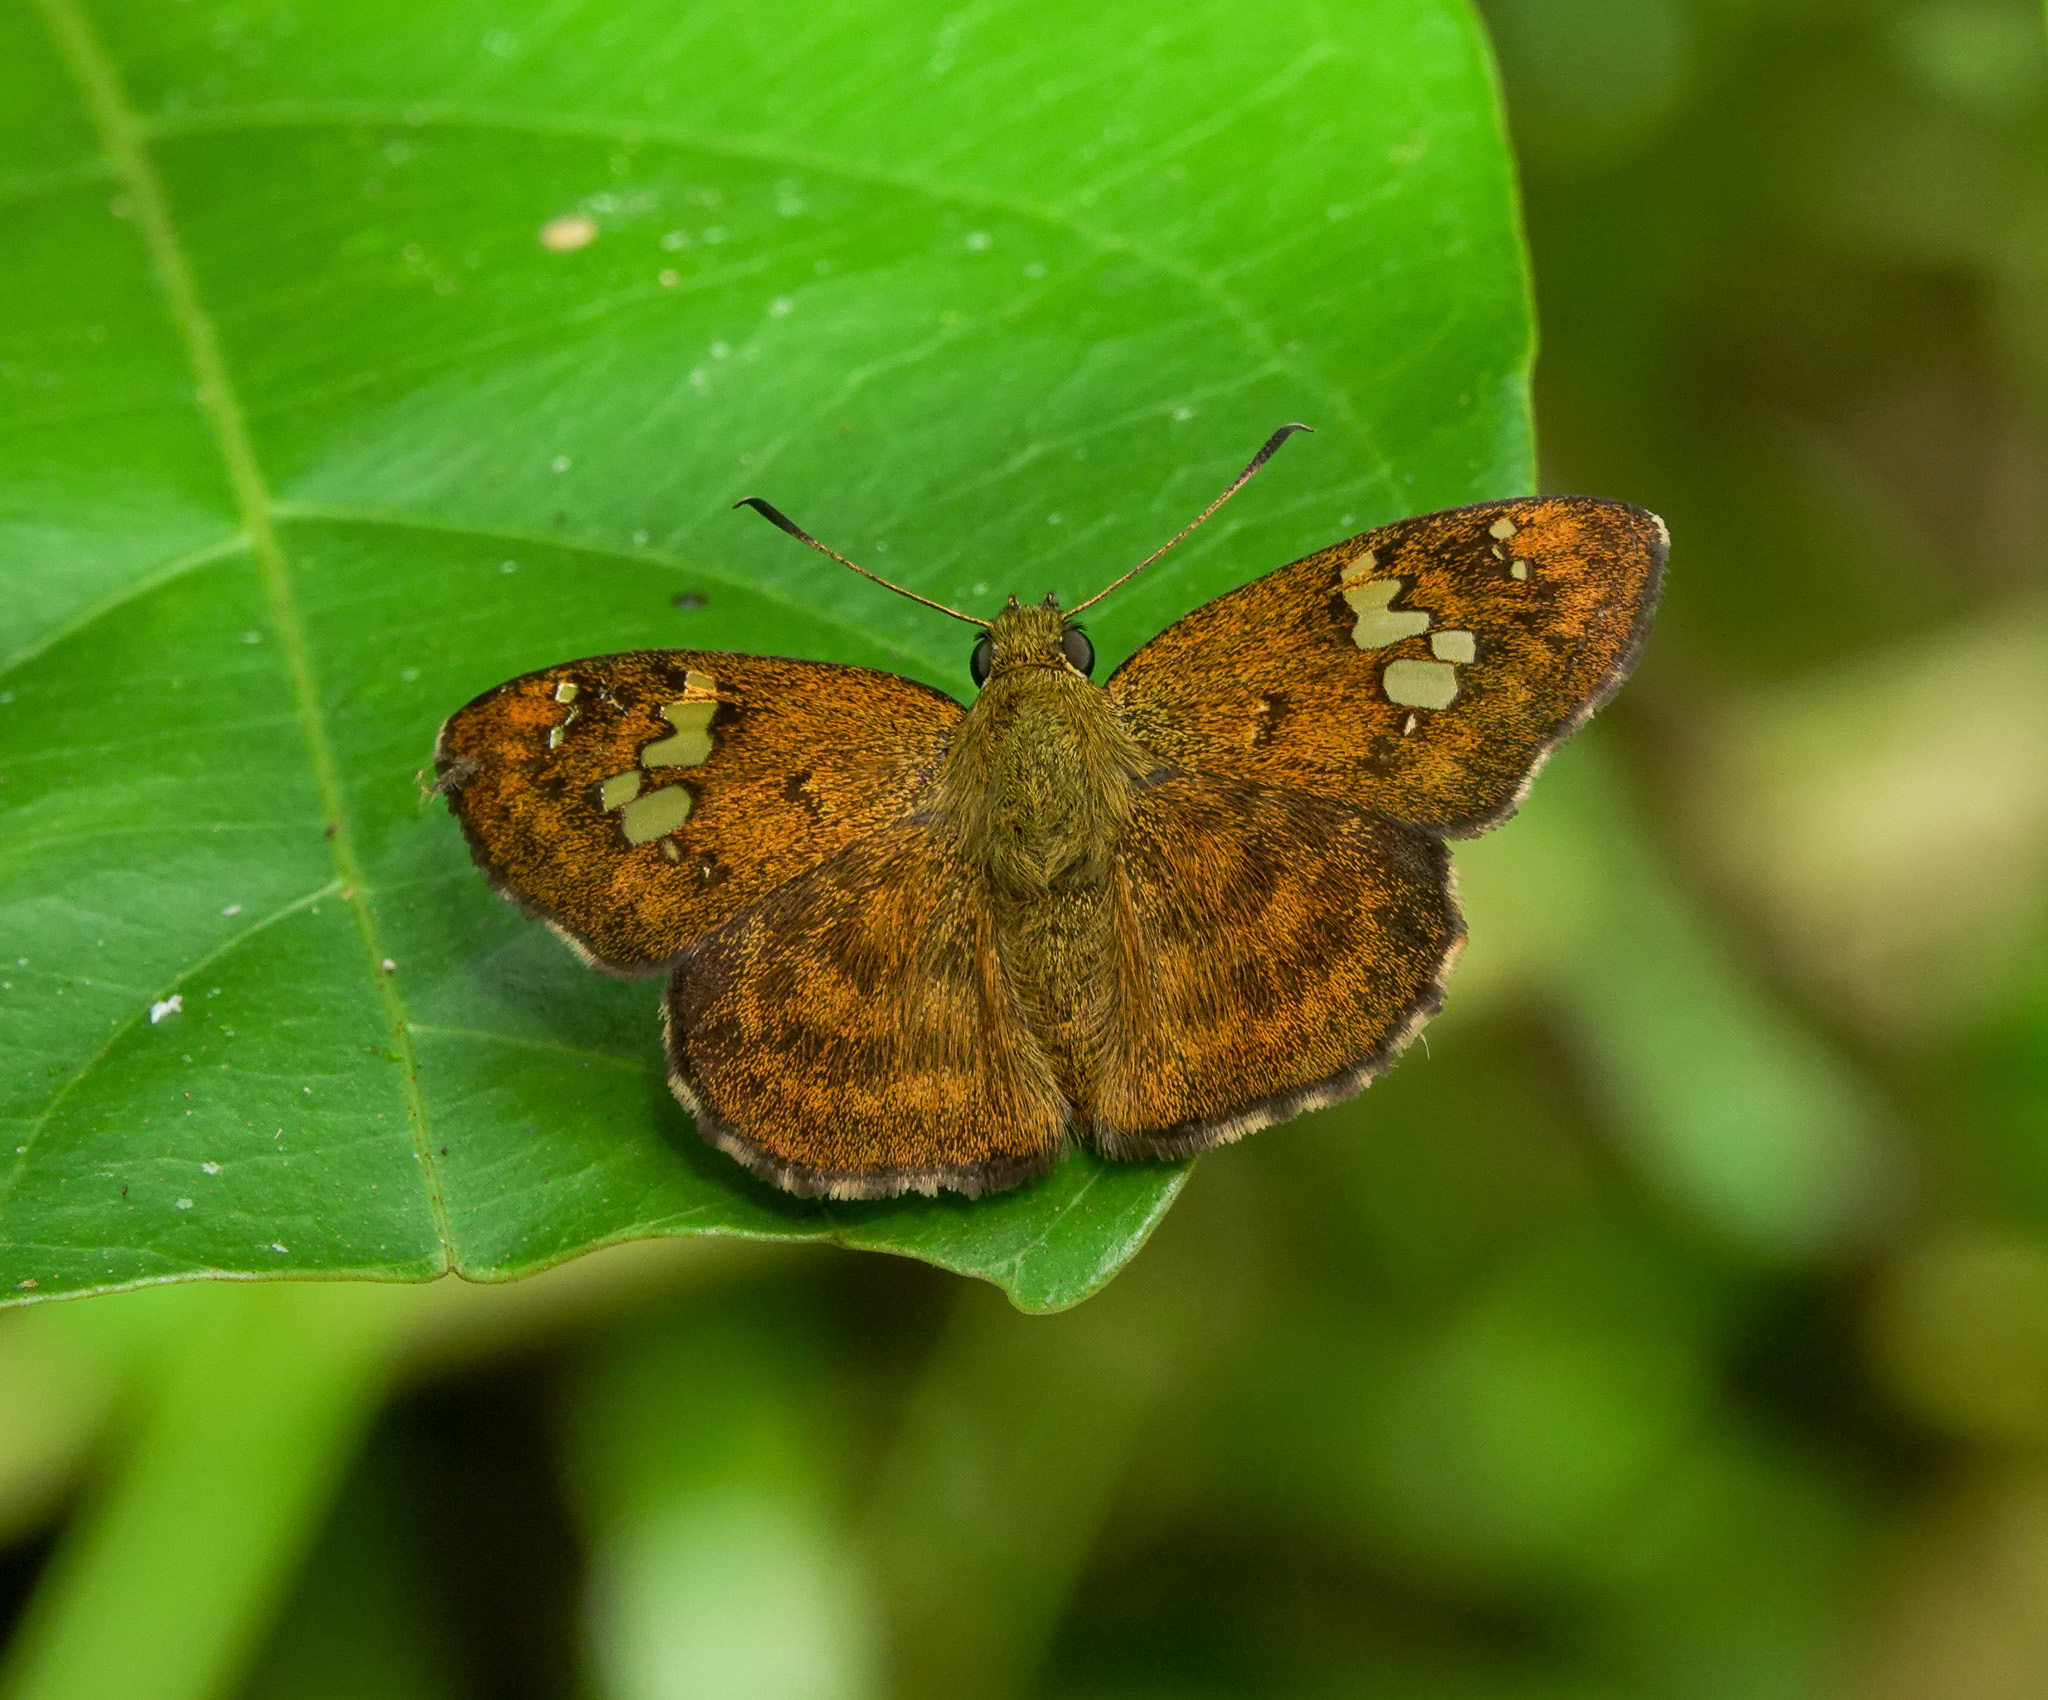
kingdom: Animalia
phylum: Arthropoda
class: Insecta
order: Lepidoptera
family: Hesperiidae
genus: Pseudocoladenia
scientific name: Pseudocoladenia dan
